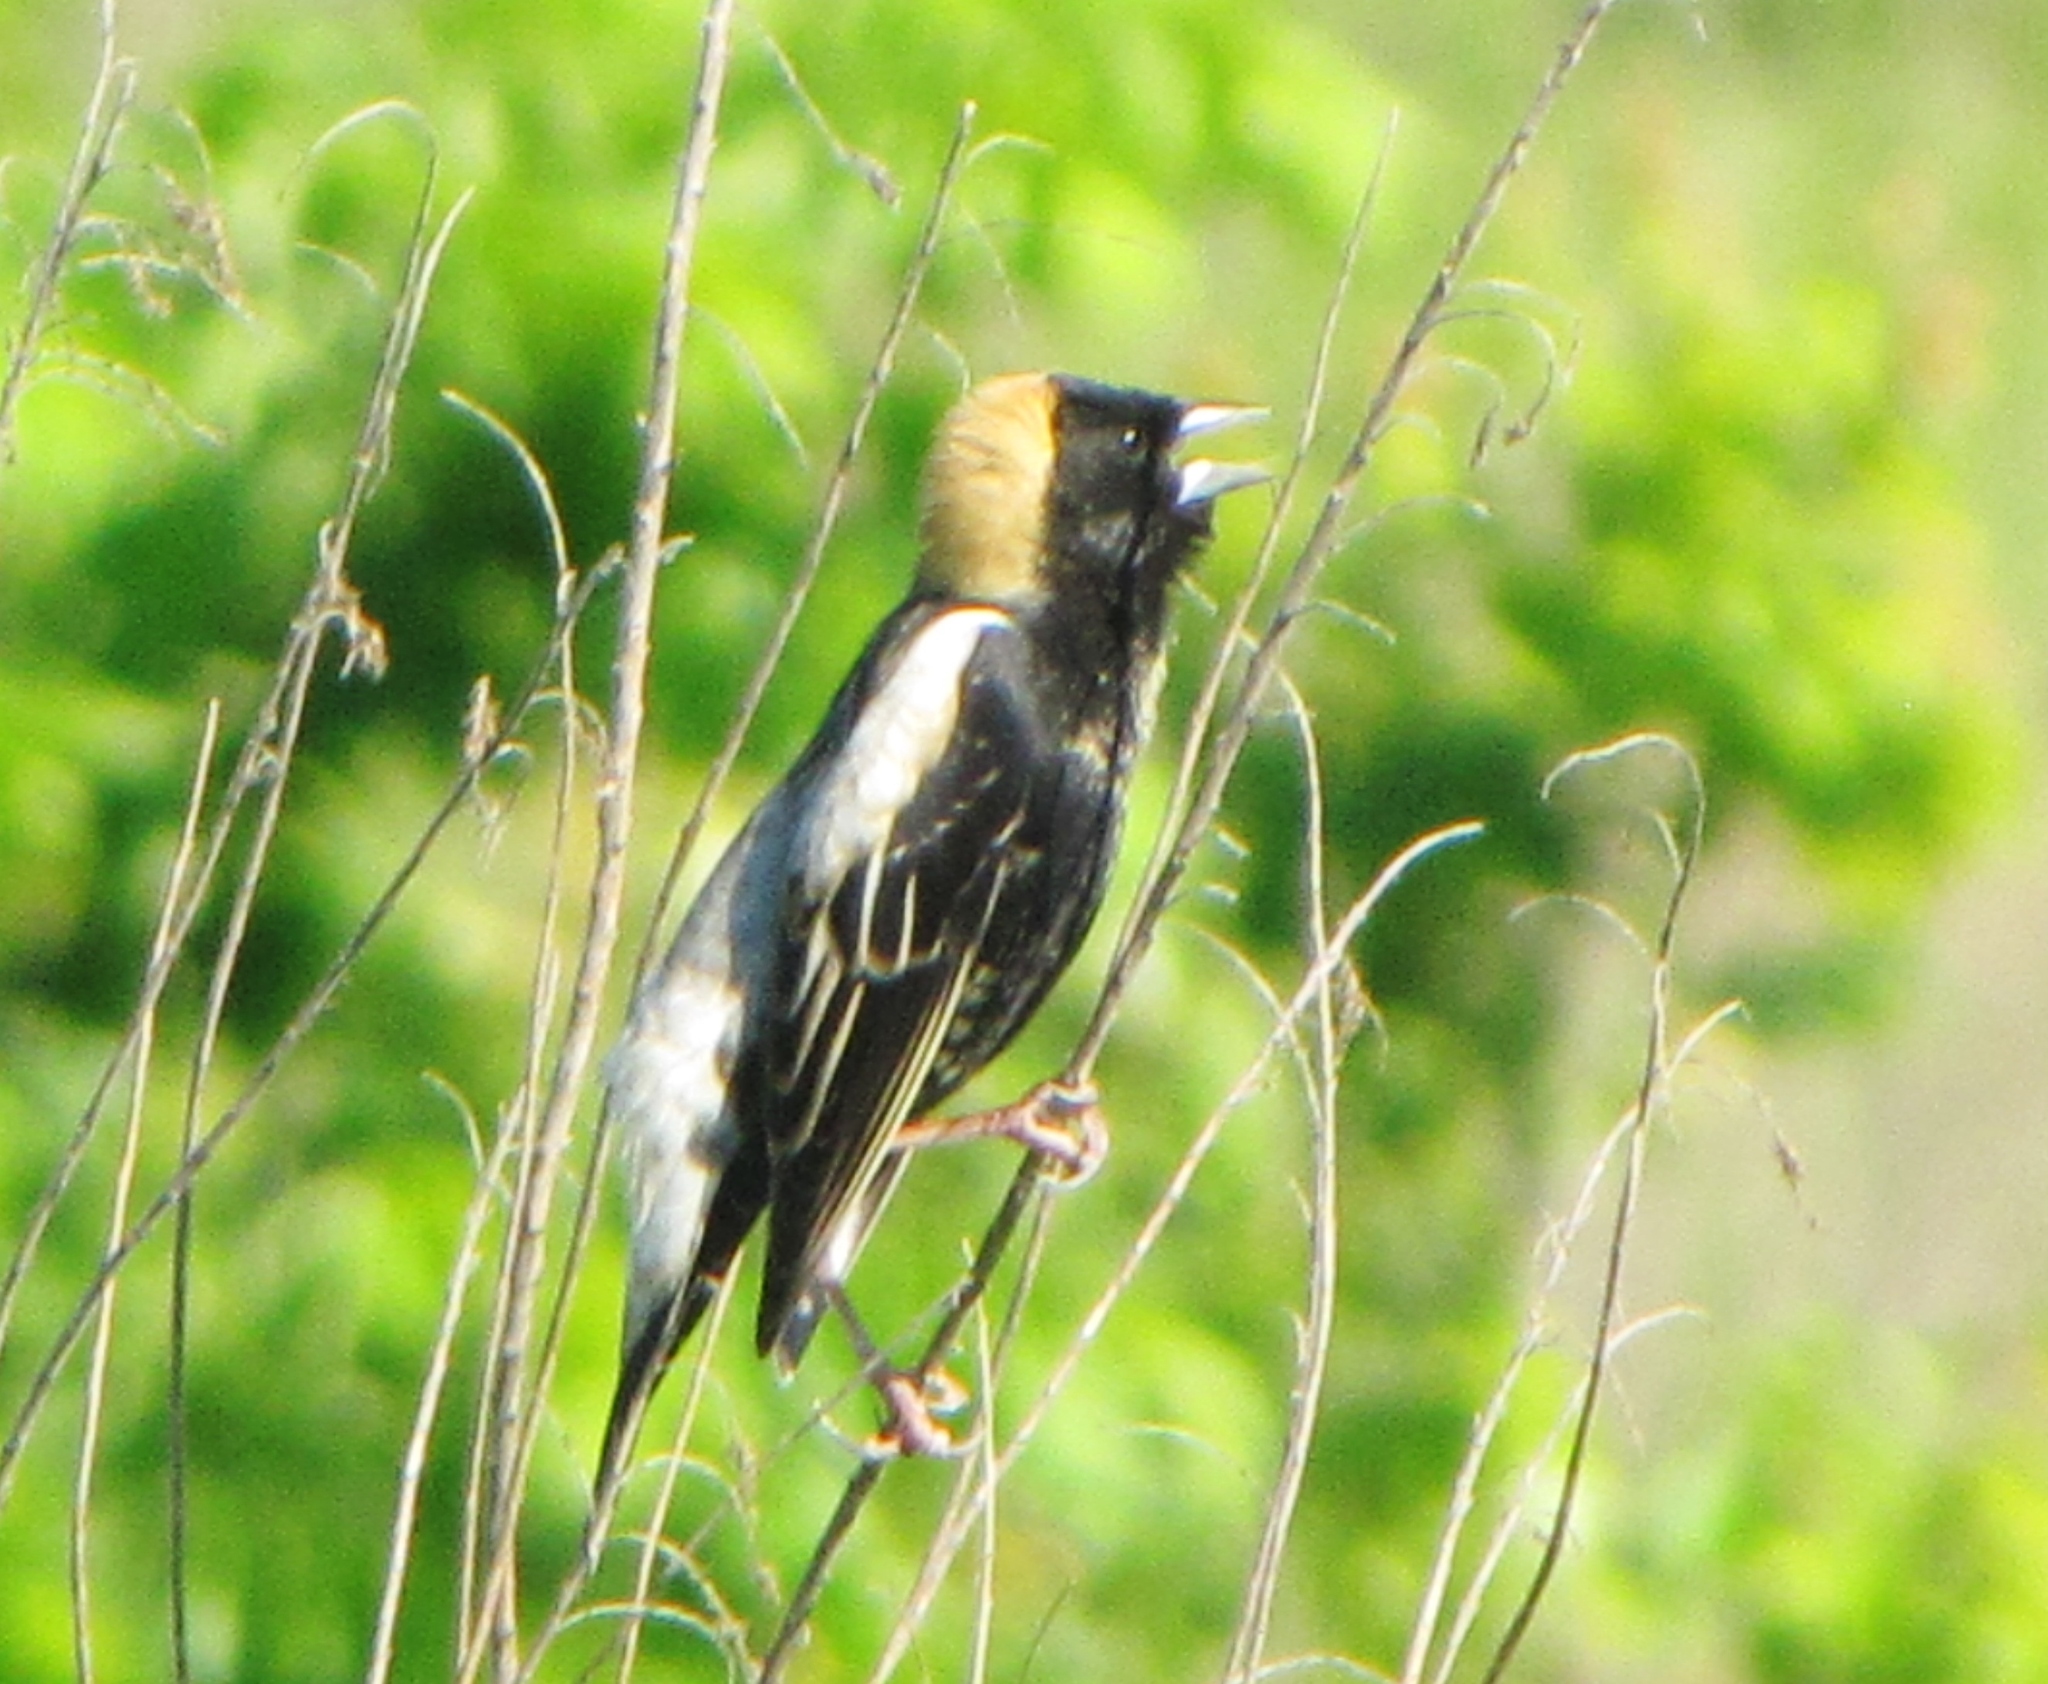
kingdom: Animalia
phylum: Chordata
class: Aves
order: Passeriformes
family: Icteridae
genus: Dolichonyx
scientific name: Dolichonyx oryzivorus
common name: Bobolink
